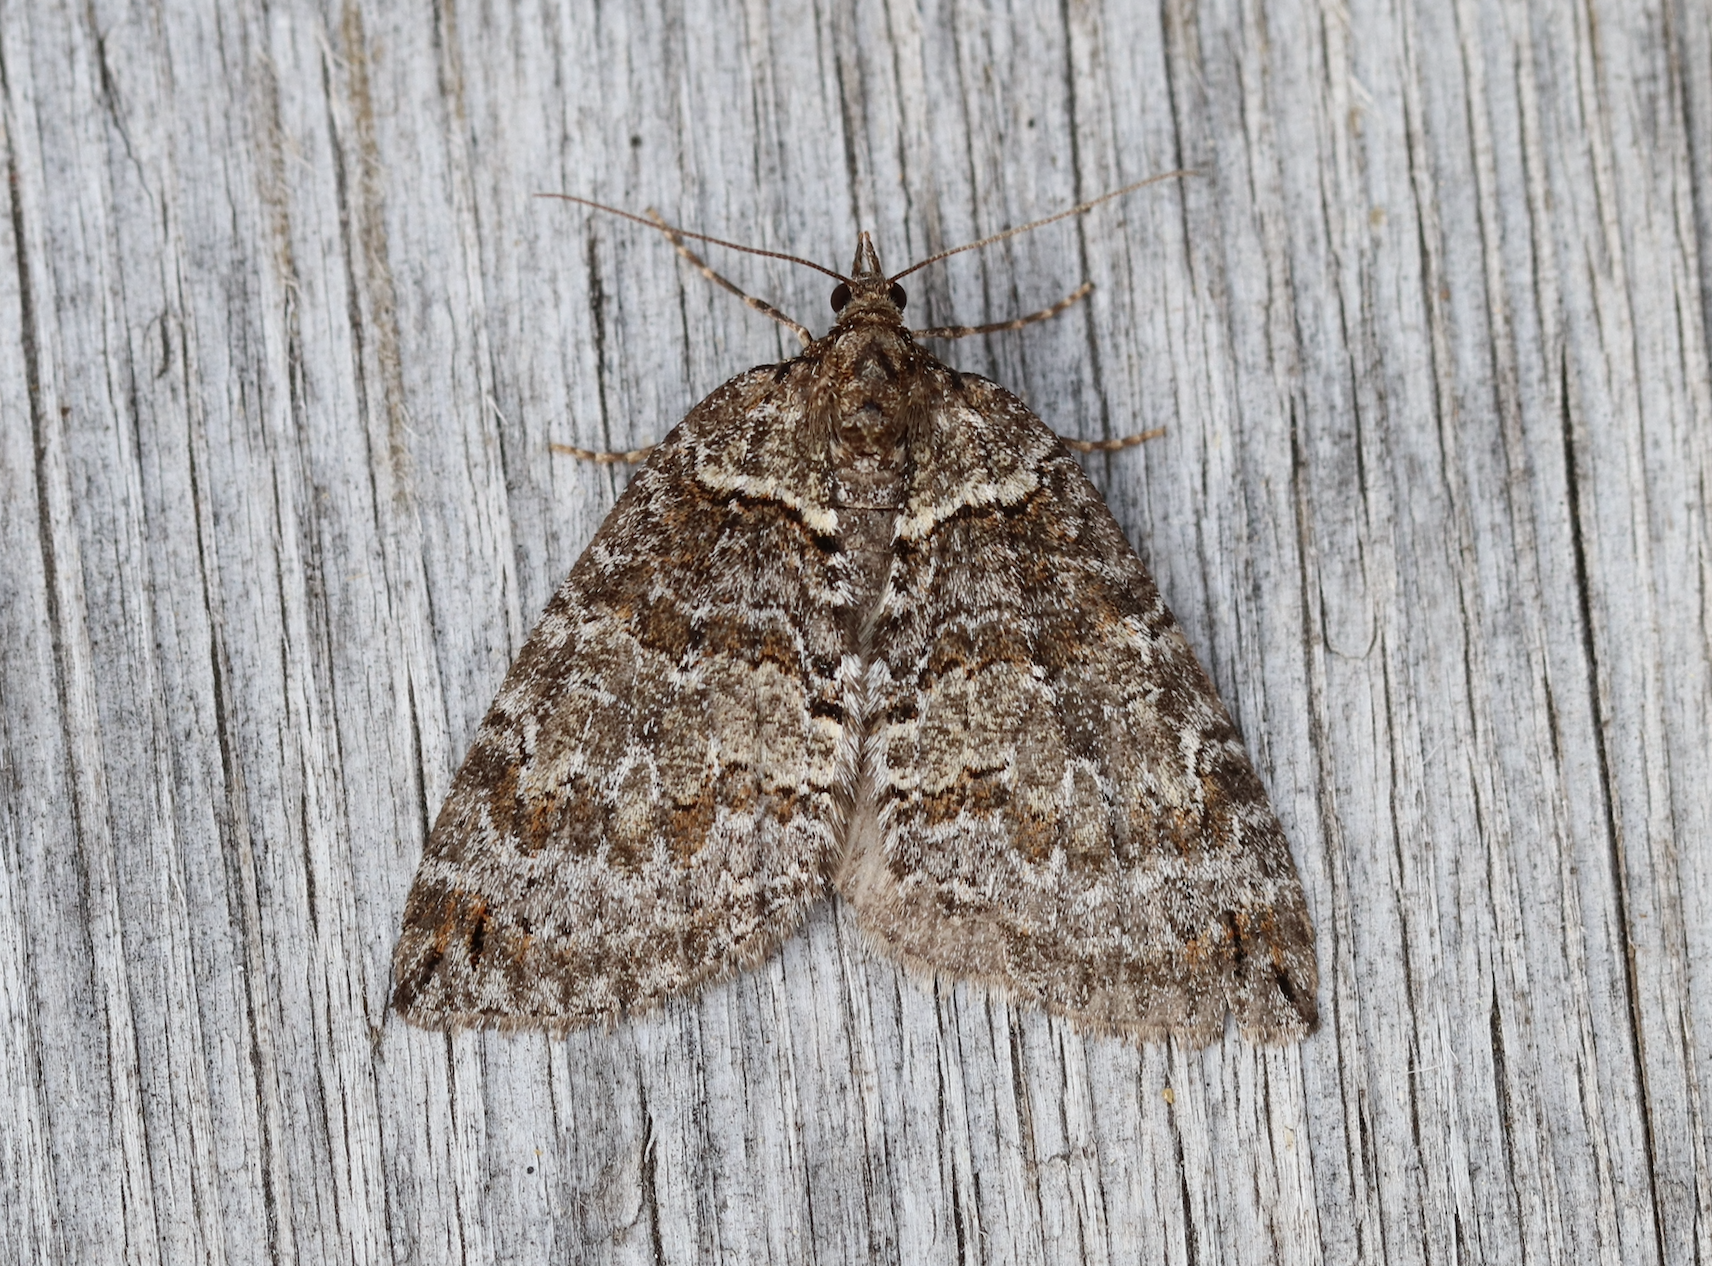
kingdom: Animalia
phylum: Arthropoda
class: Insecta
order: Lepidoptera
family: Geometridae
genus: Hydriomena
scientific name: Hydriomena ruberata
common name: Ruddy highflyer
